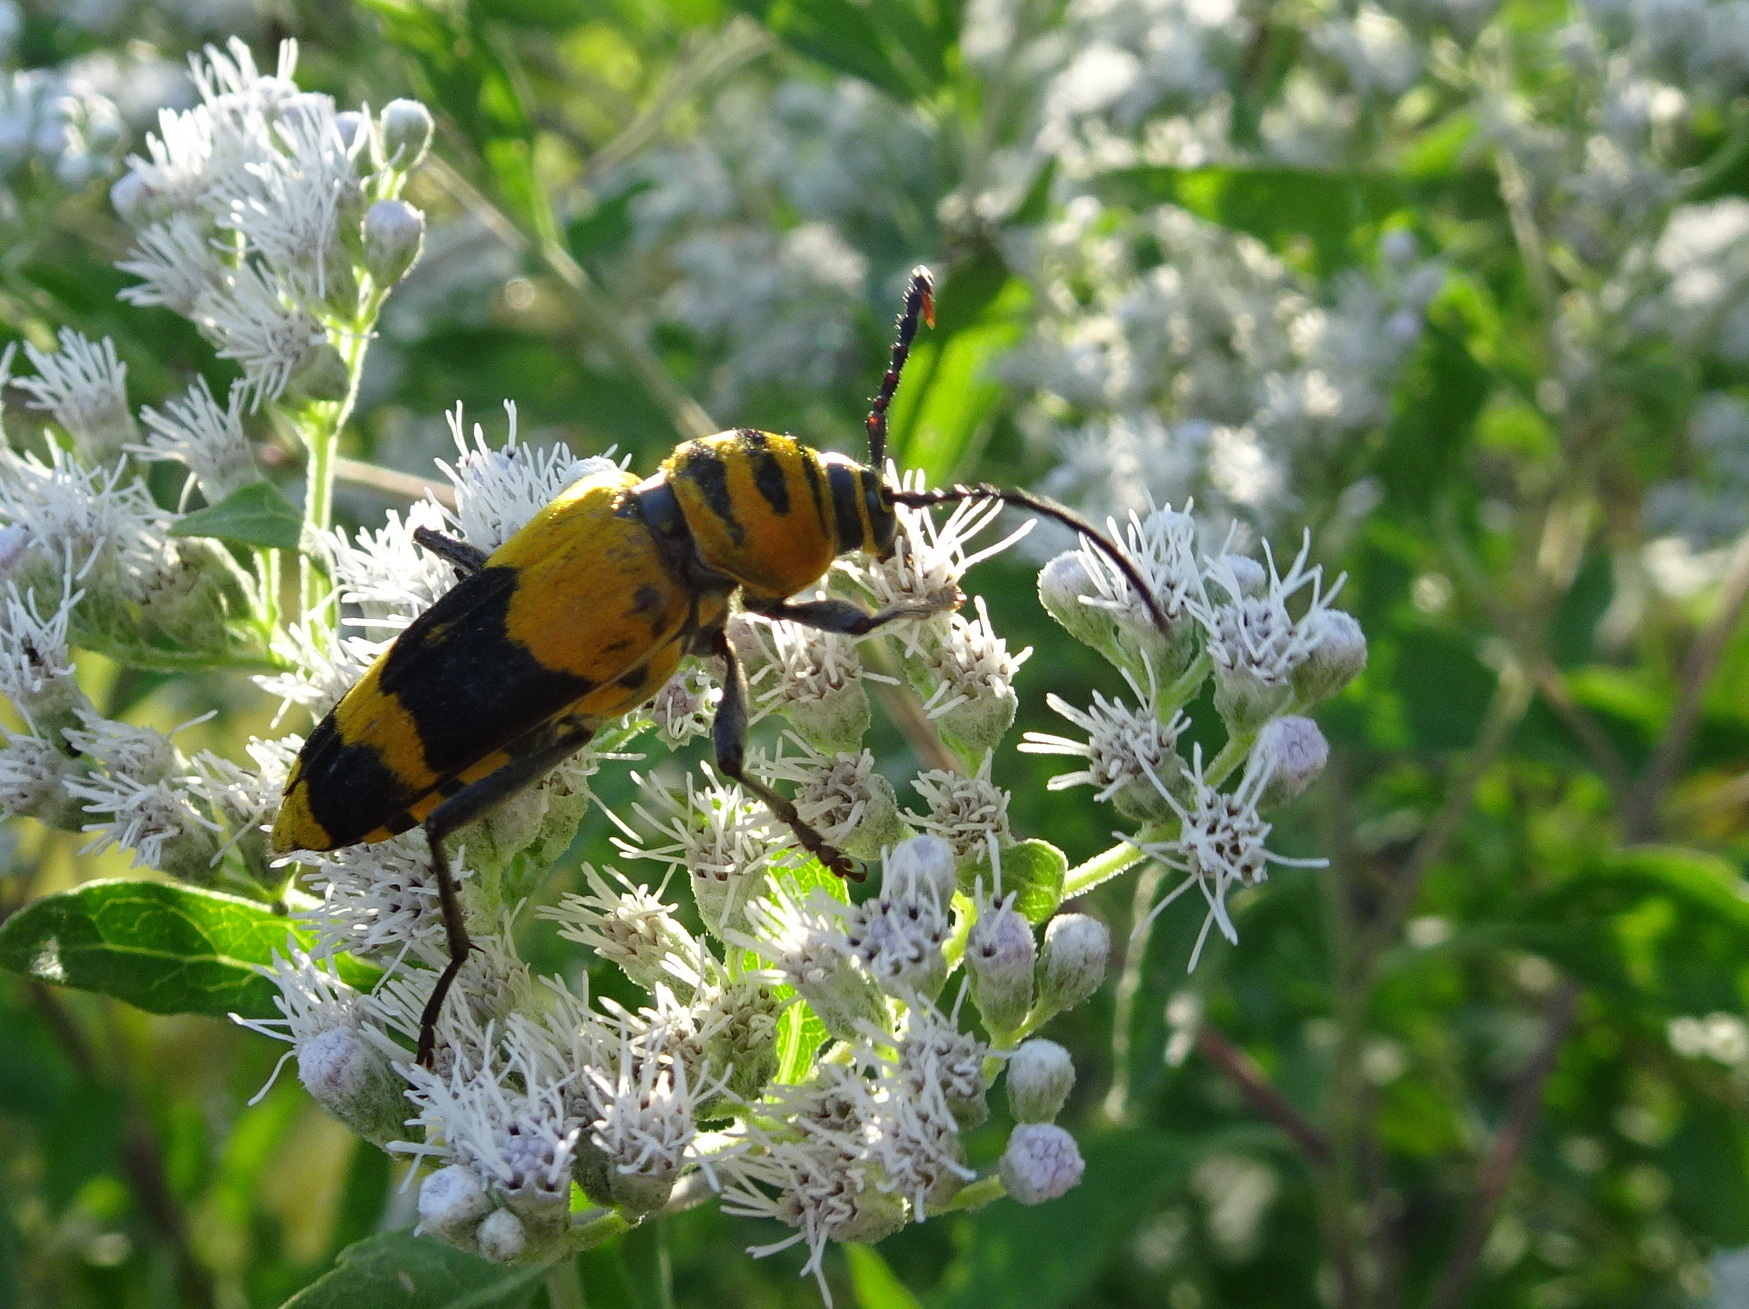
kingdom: Animalia
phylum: Arthropoda
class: Insecta
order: Coleoptera
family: Cerambycidae
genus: Megacyllene
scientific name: Megacyllene decora
